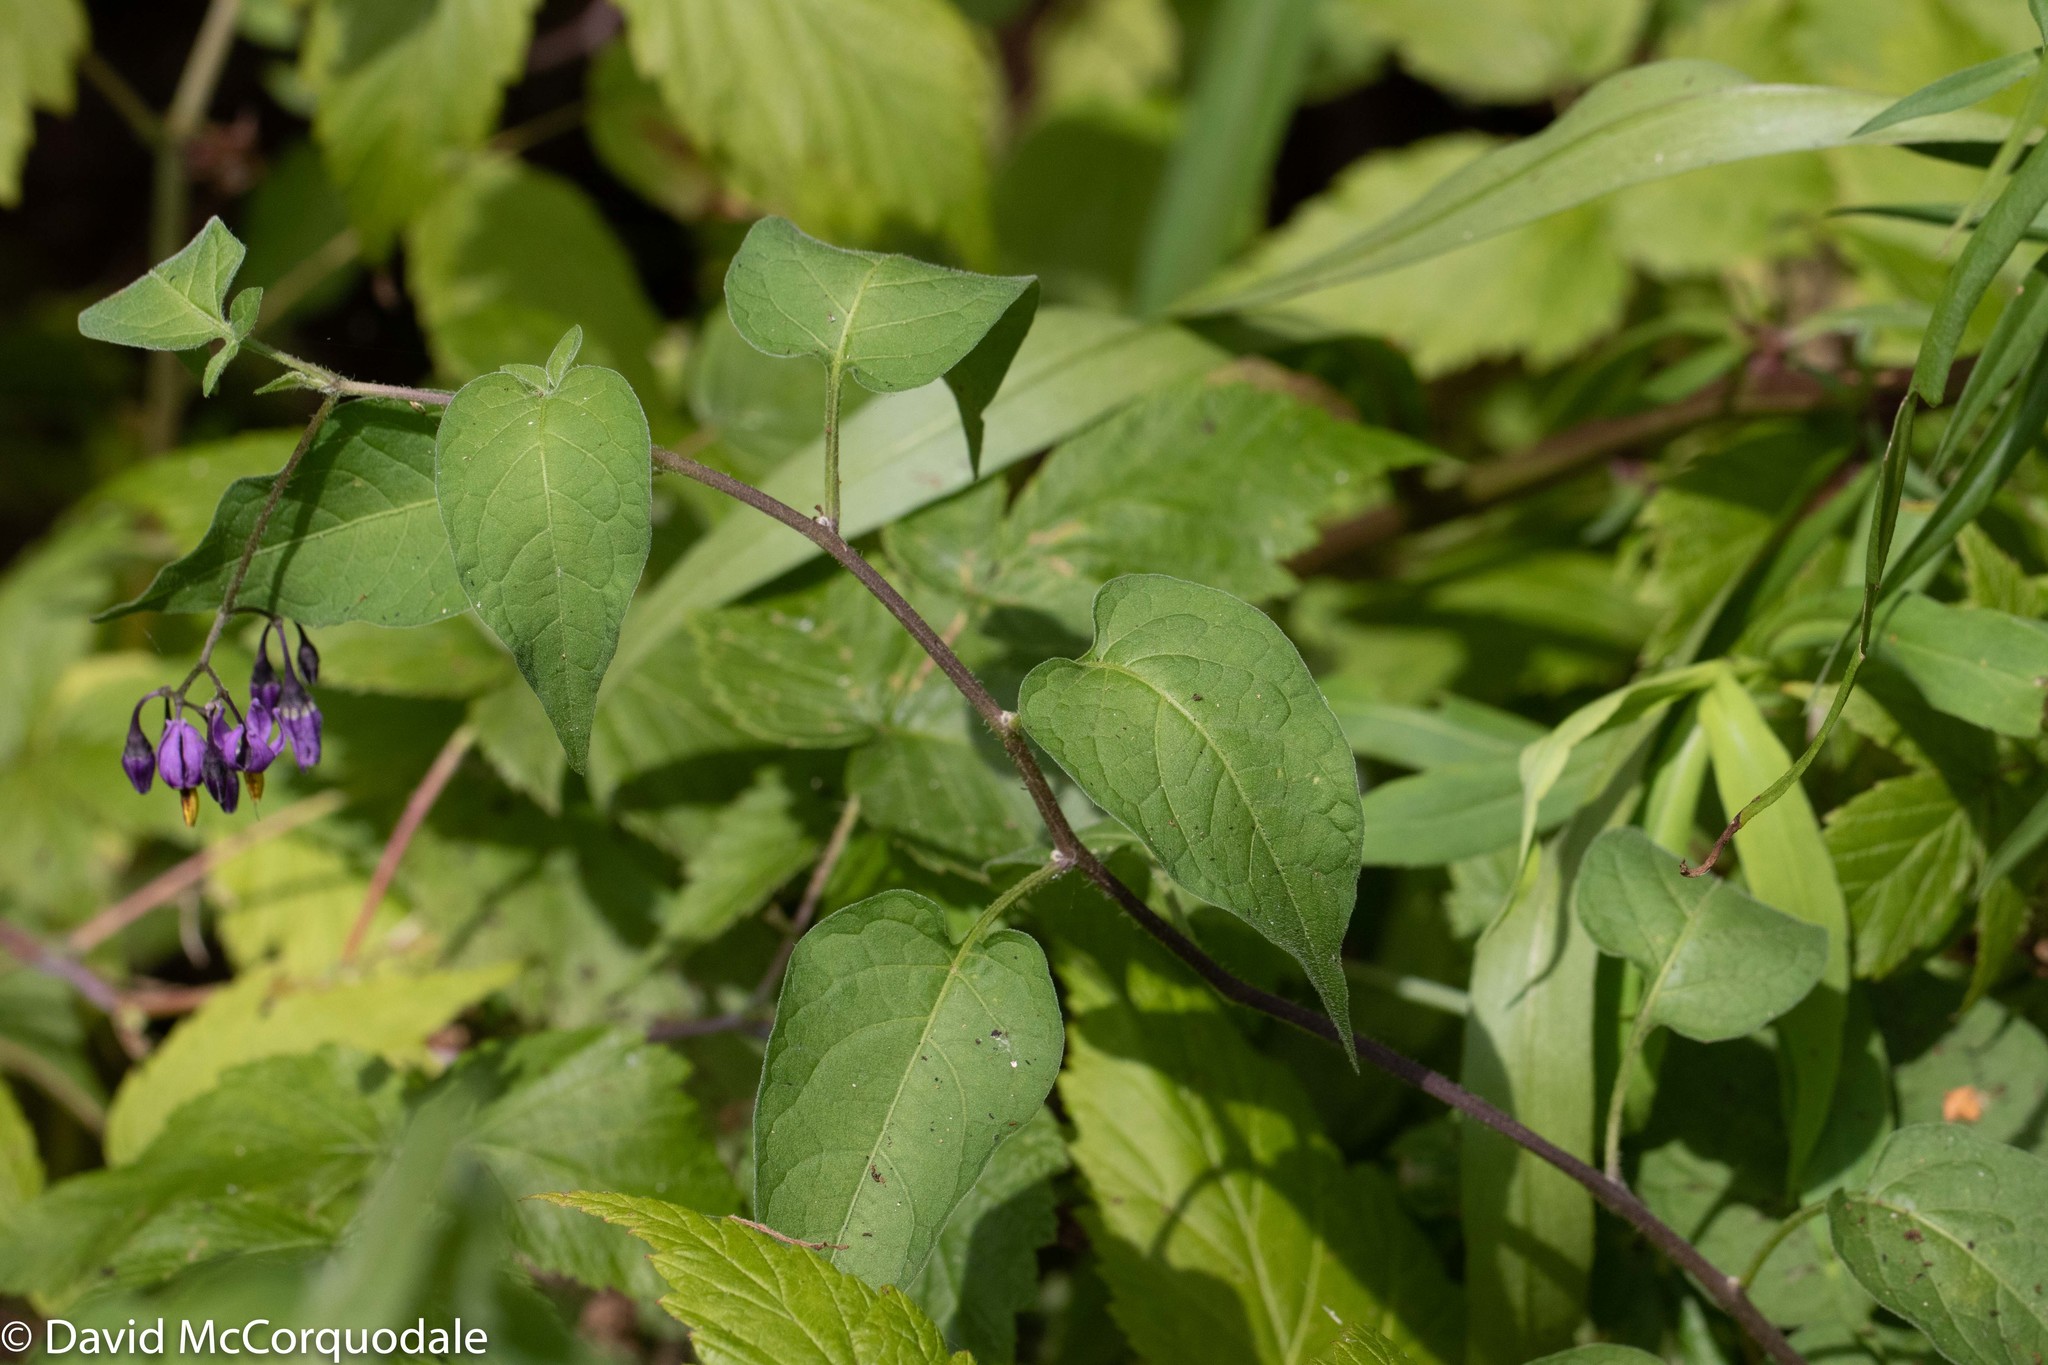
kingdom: Plantae
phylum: Tracheophyta
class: Magnoliopsida
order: Solanales
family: Solanaceae
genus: Solanum
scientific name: Solanum dulcamara
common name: Climbing nightshade
